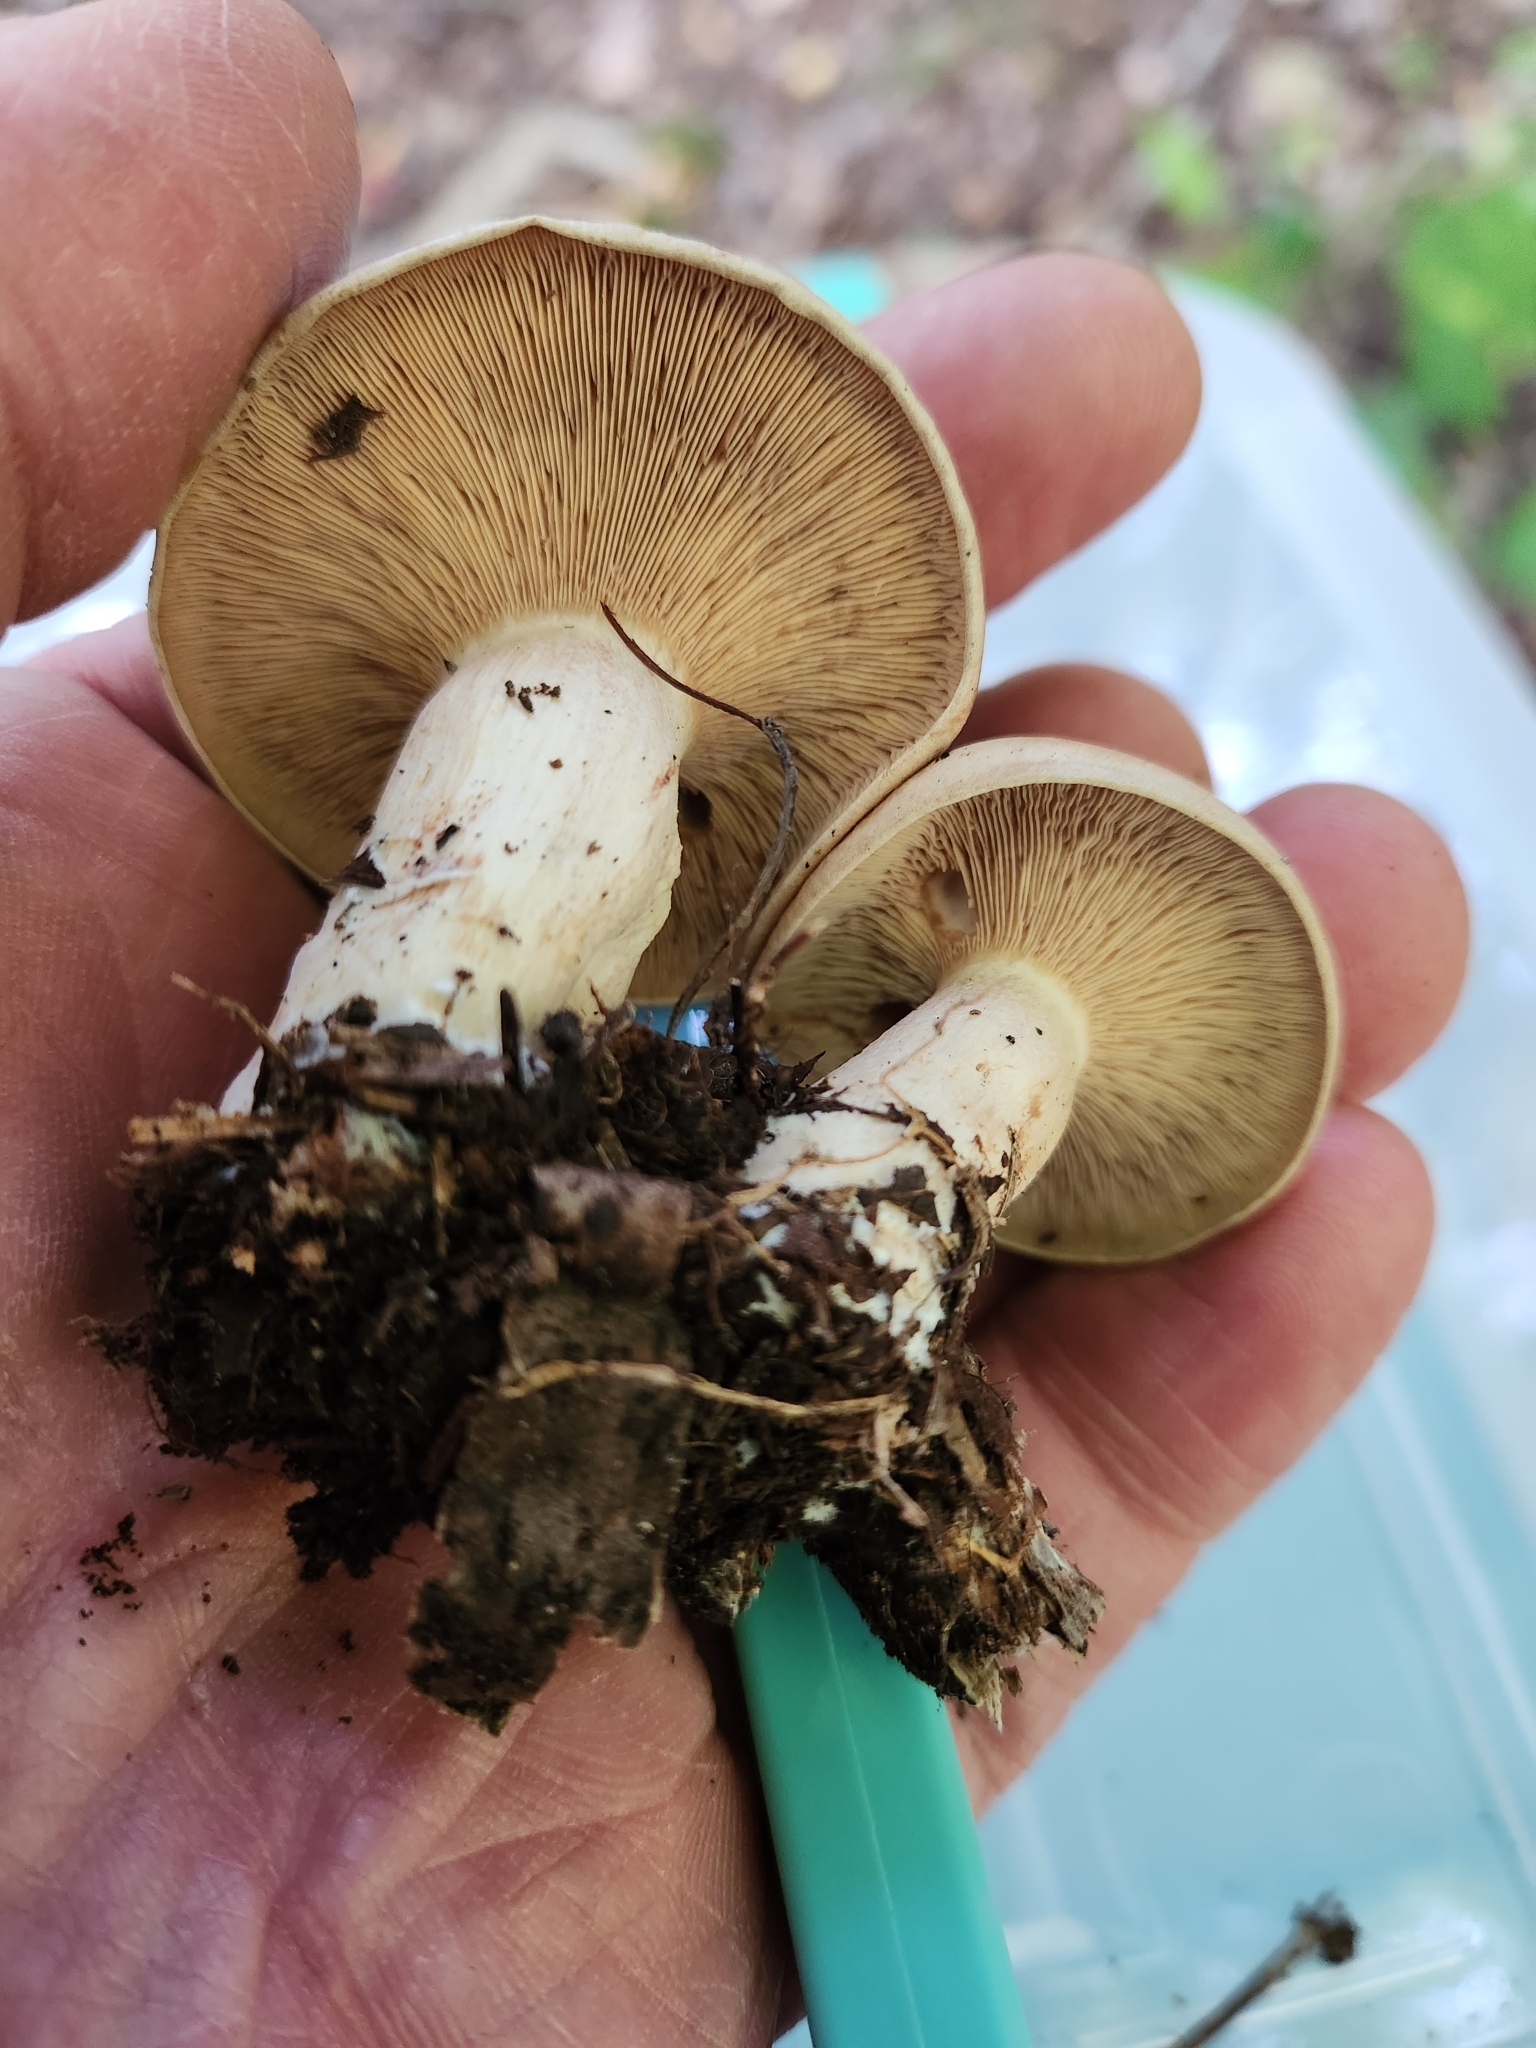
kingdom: Fungi
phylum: Basidiomycota
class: Agaricomycetes
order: Agaricales
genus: Hertzogia
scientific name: Hertzogia martiorum
